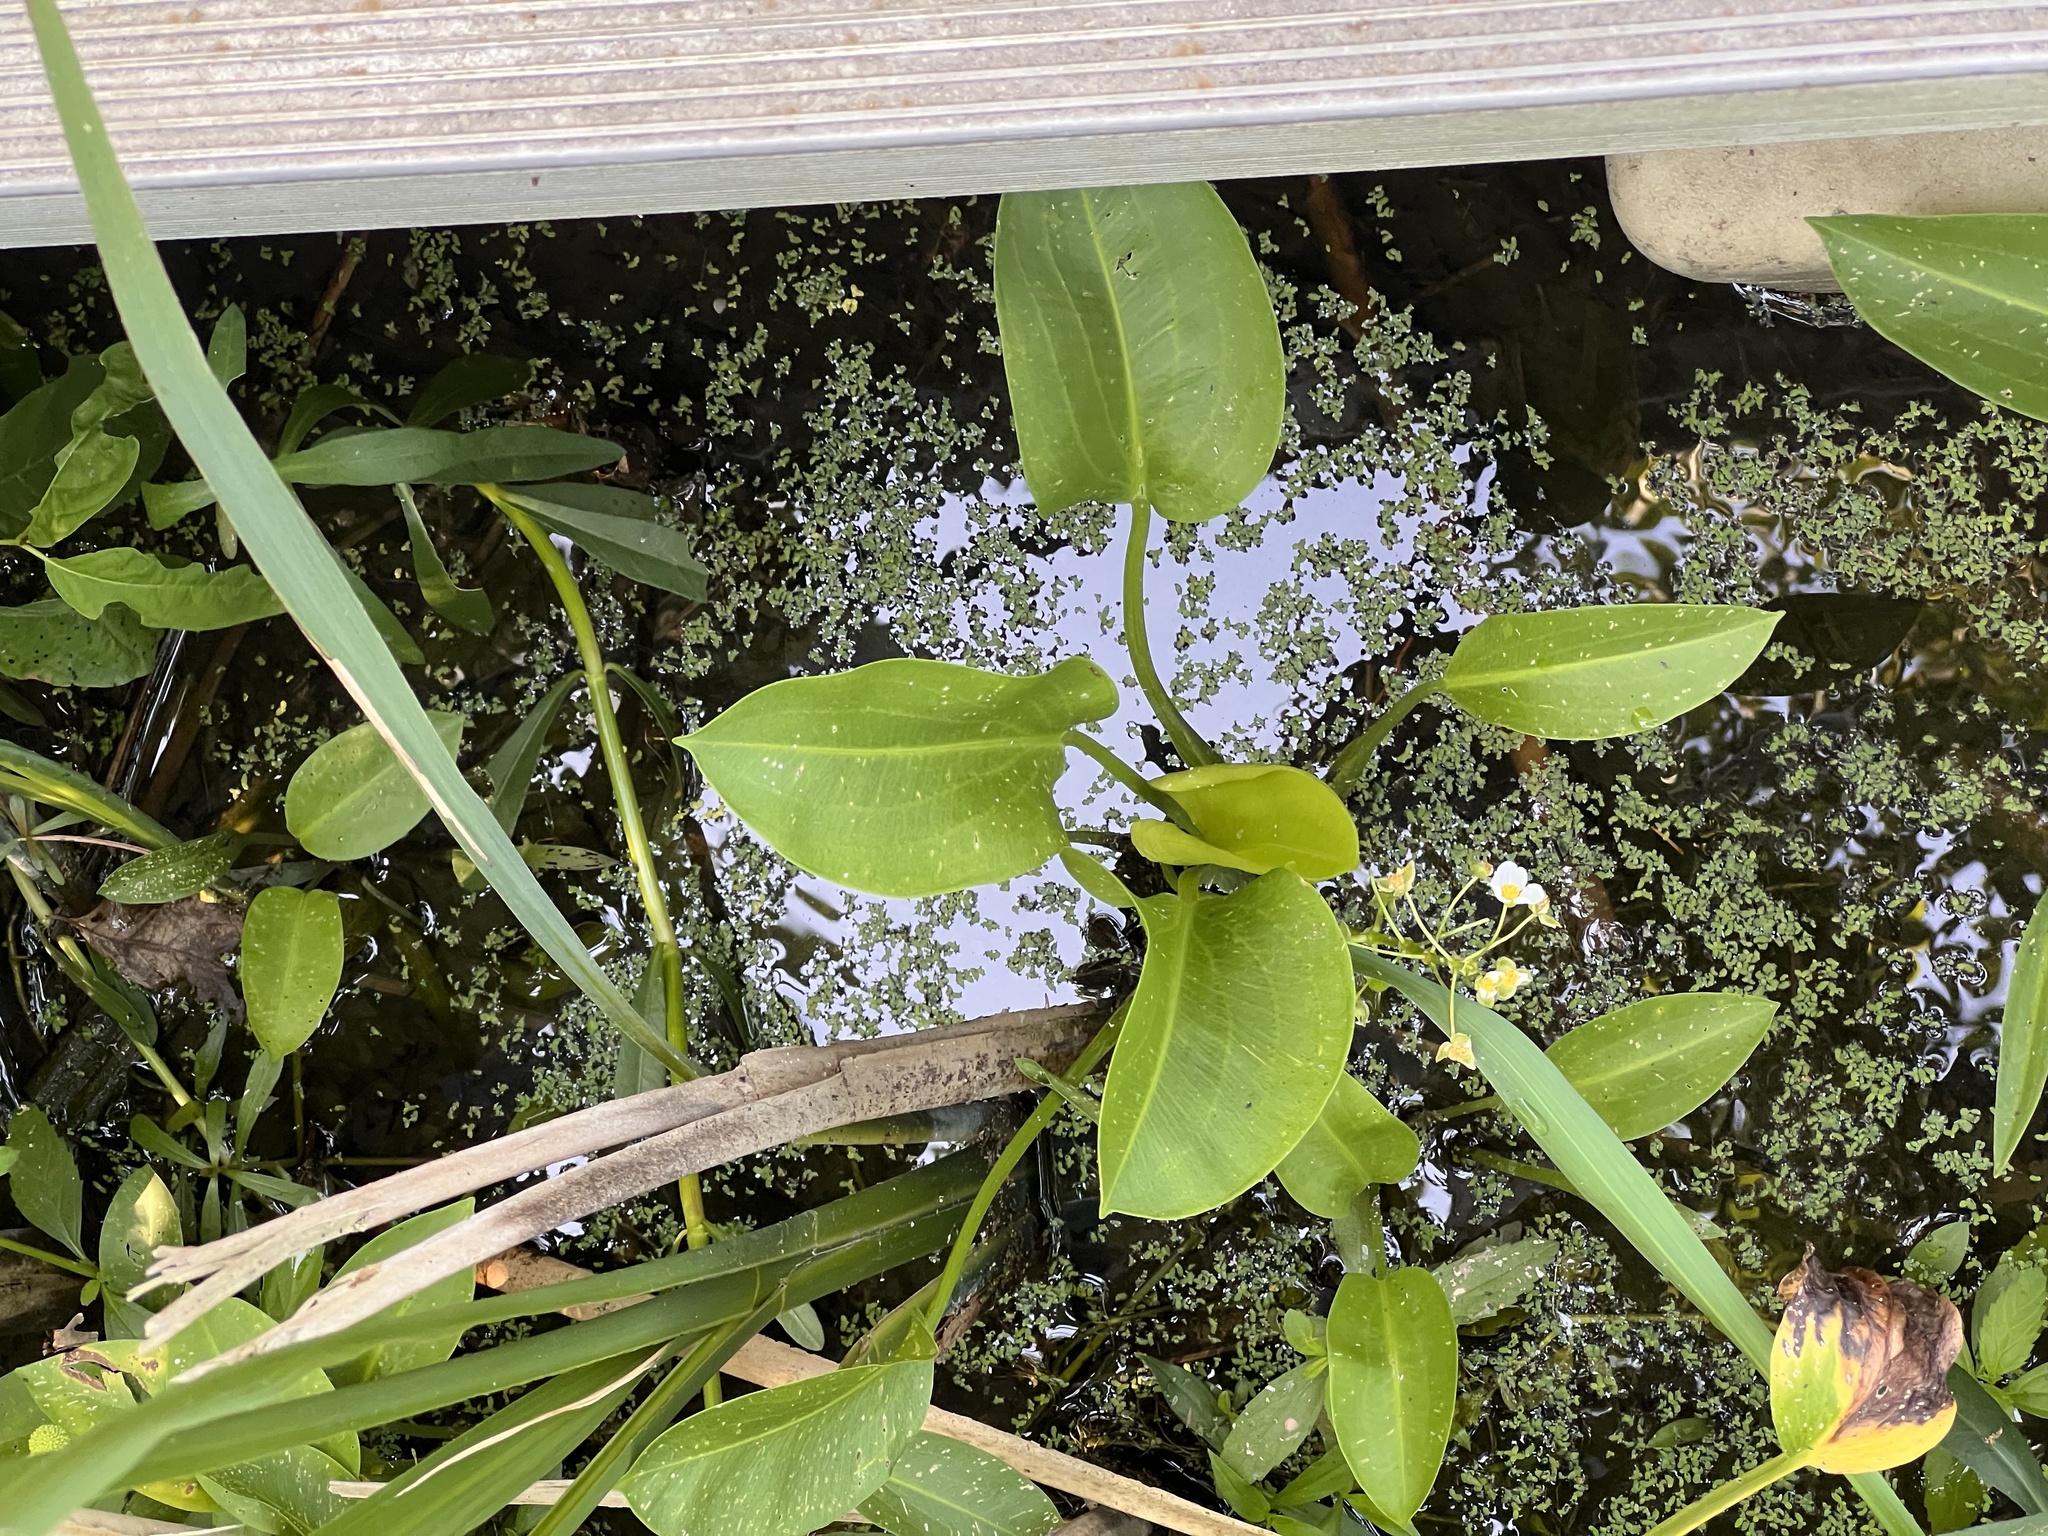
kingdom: Plantae
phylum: Tracheophyta
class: Liliopsida
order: Alismatales
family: Alismataceae
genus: Sagittaria
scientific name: Sagittaria platyphylla
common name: Broad-leaf arrowhead
